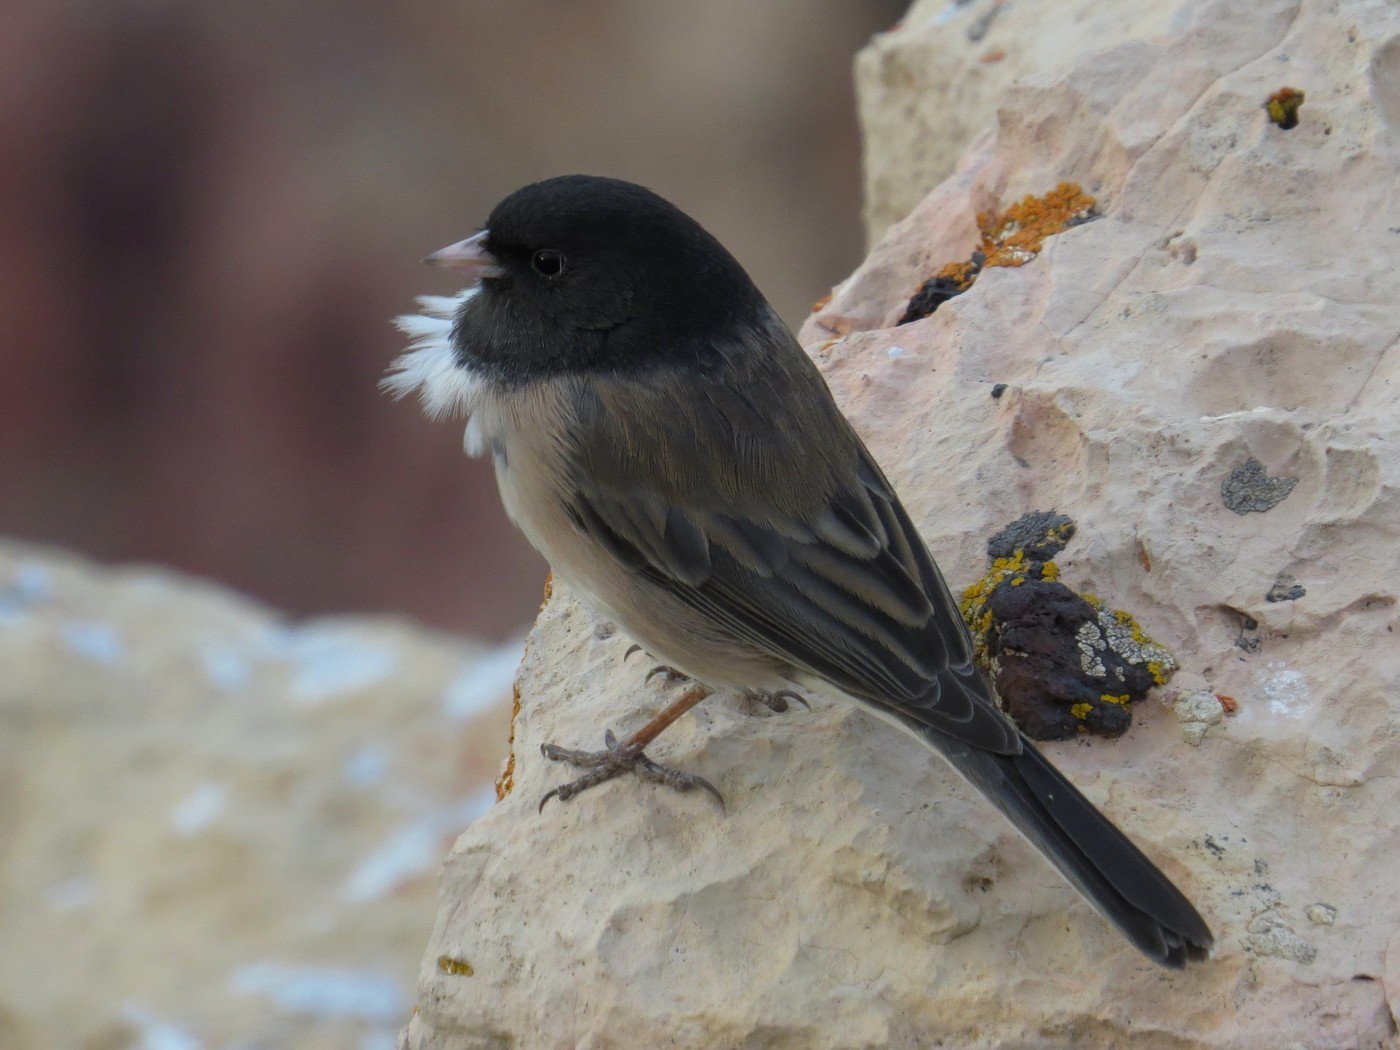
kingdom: Animalia
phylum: Chordata
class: Aves
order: Passeriformes
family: Passerellidae
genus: Junco
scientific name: Junco hyemalis
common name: Dark-eyed junco
